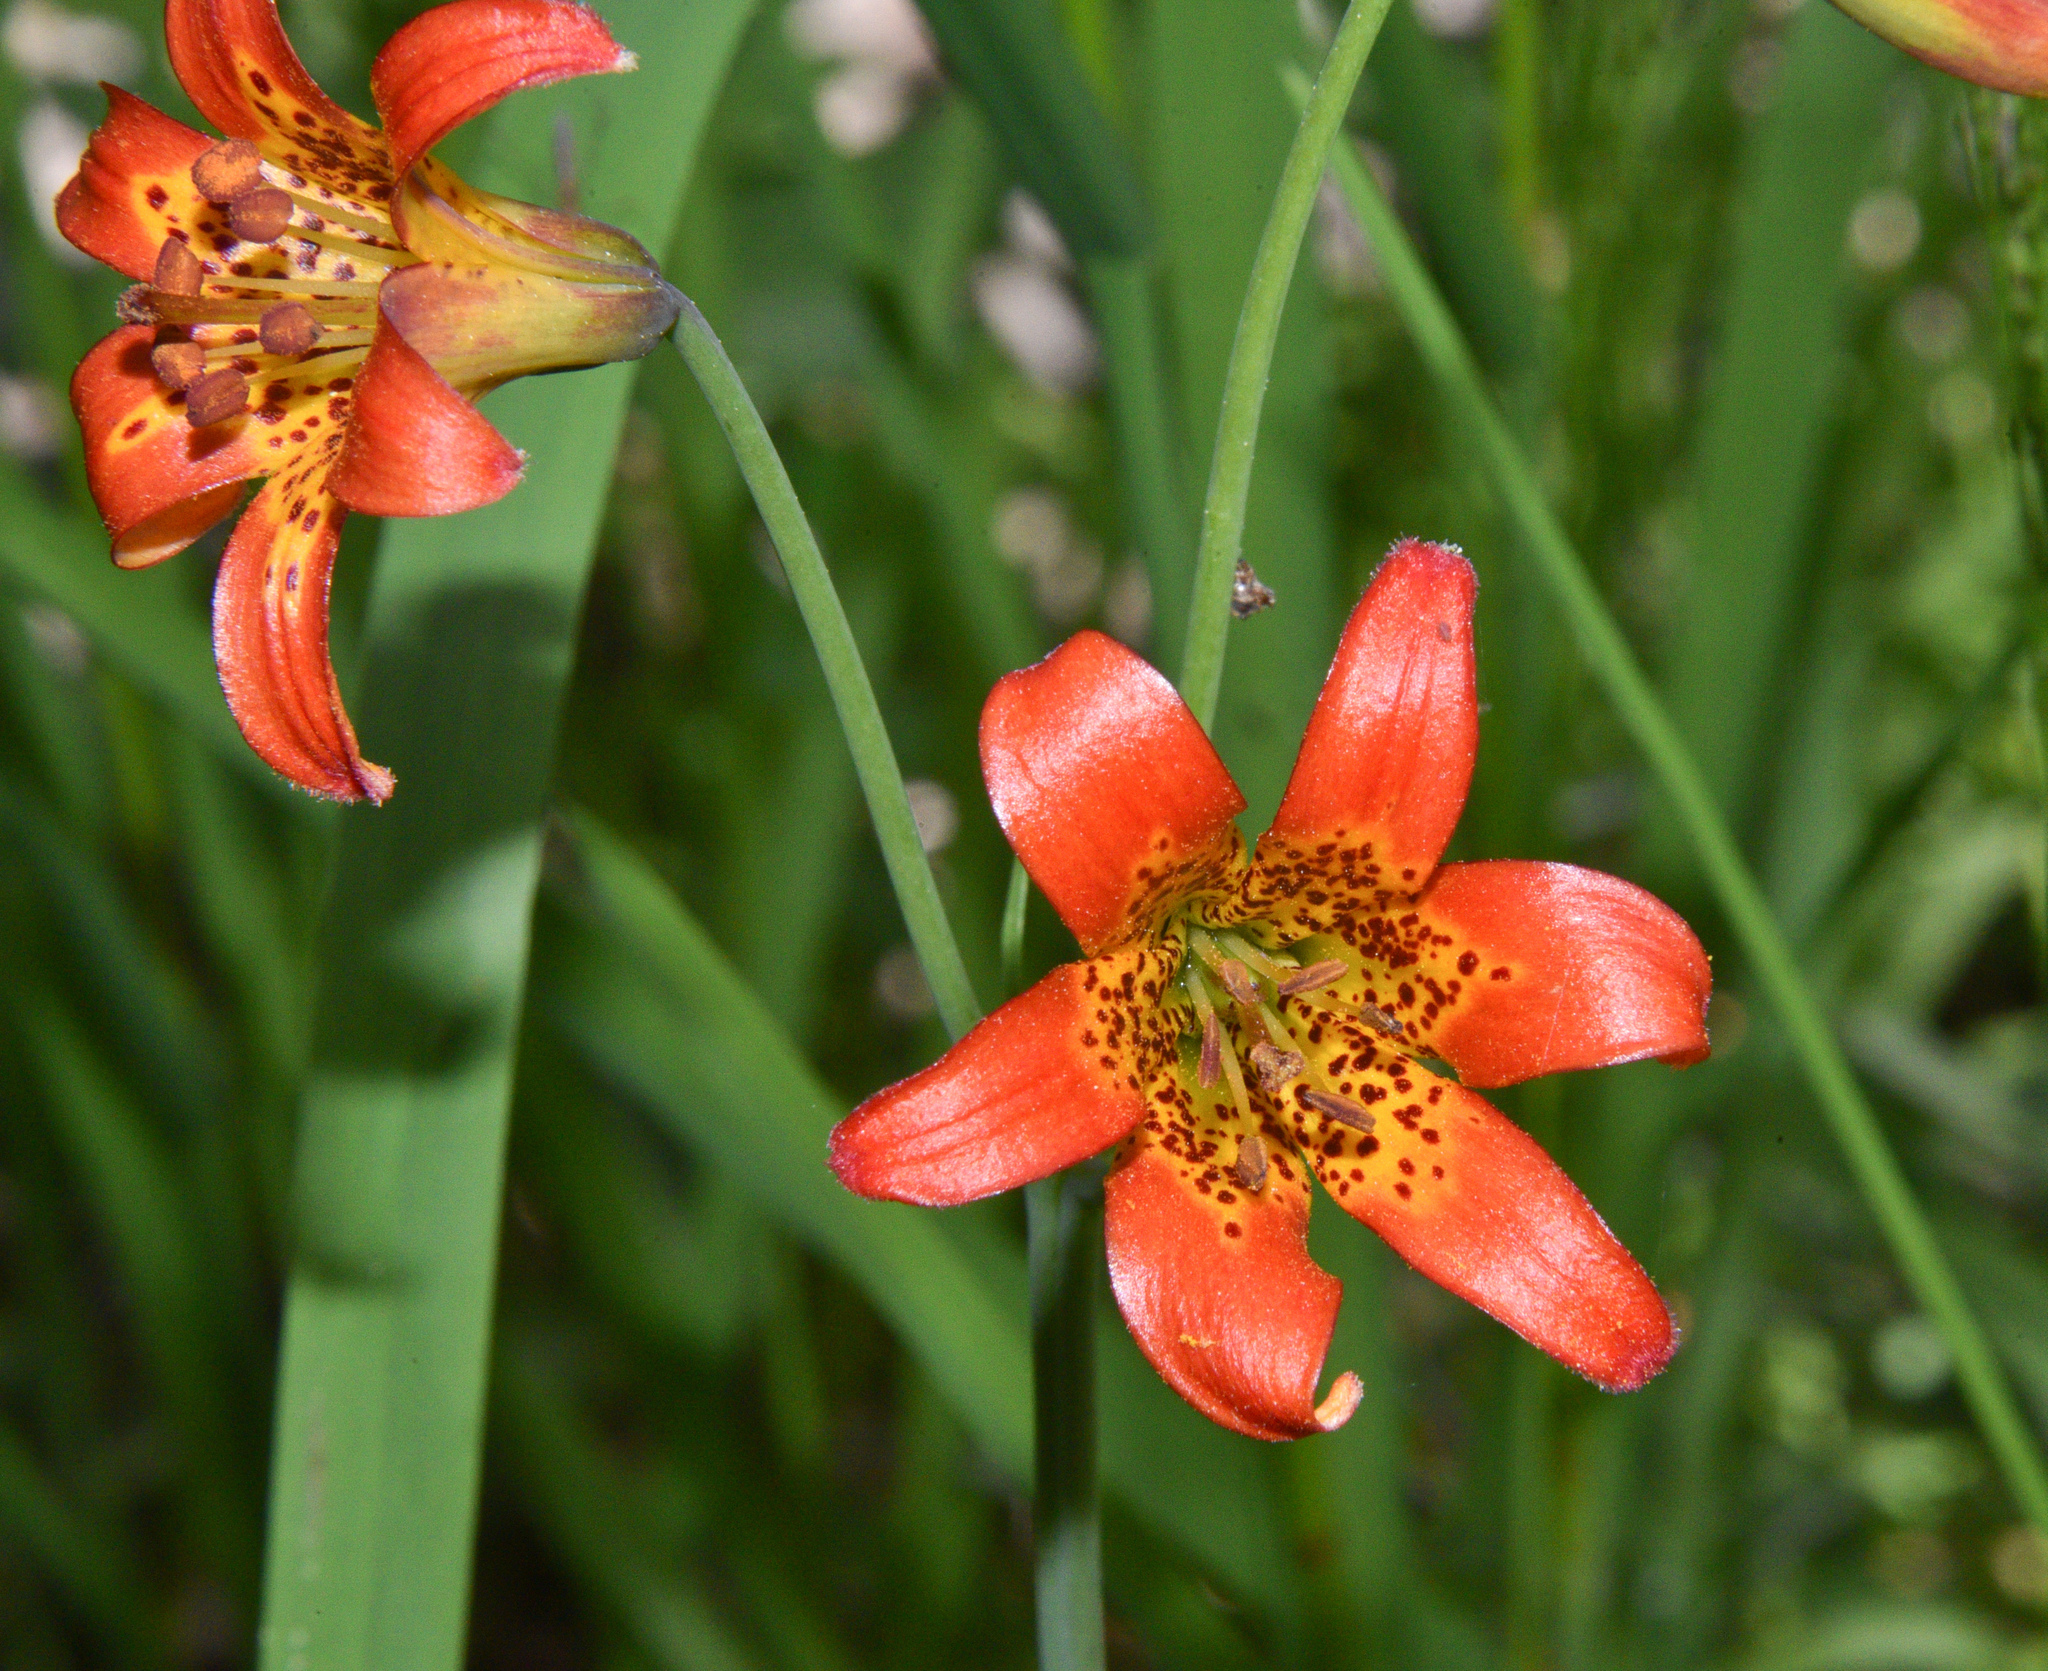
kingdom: Plantae
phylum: Tracheophyta
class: Liliopsida
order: Liliales
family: Liliaceae
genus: Lilium
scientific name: Lilium parvum
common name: Alpine lily
